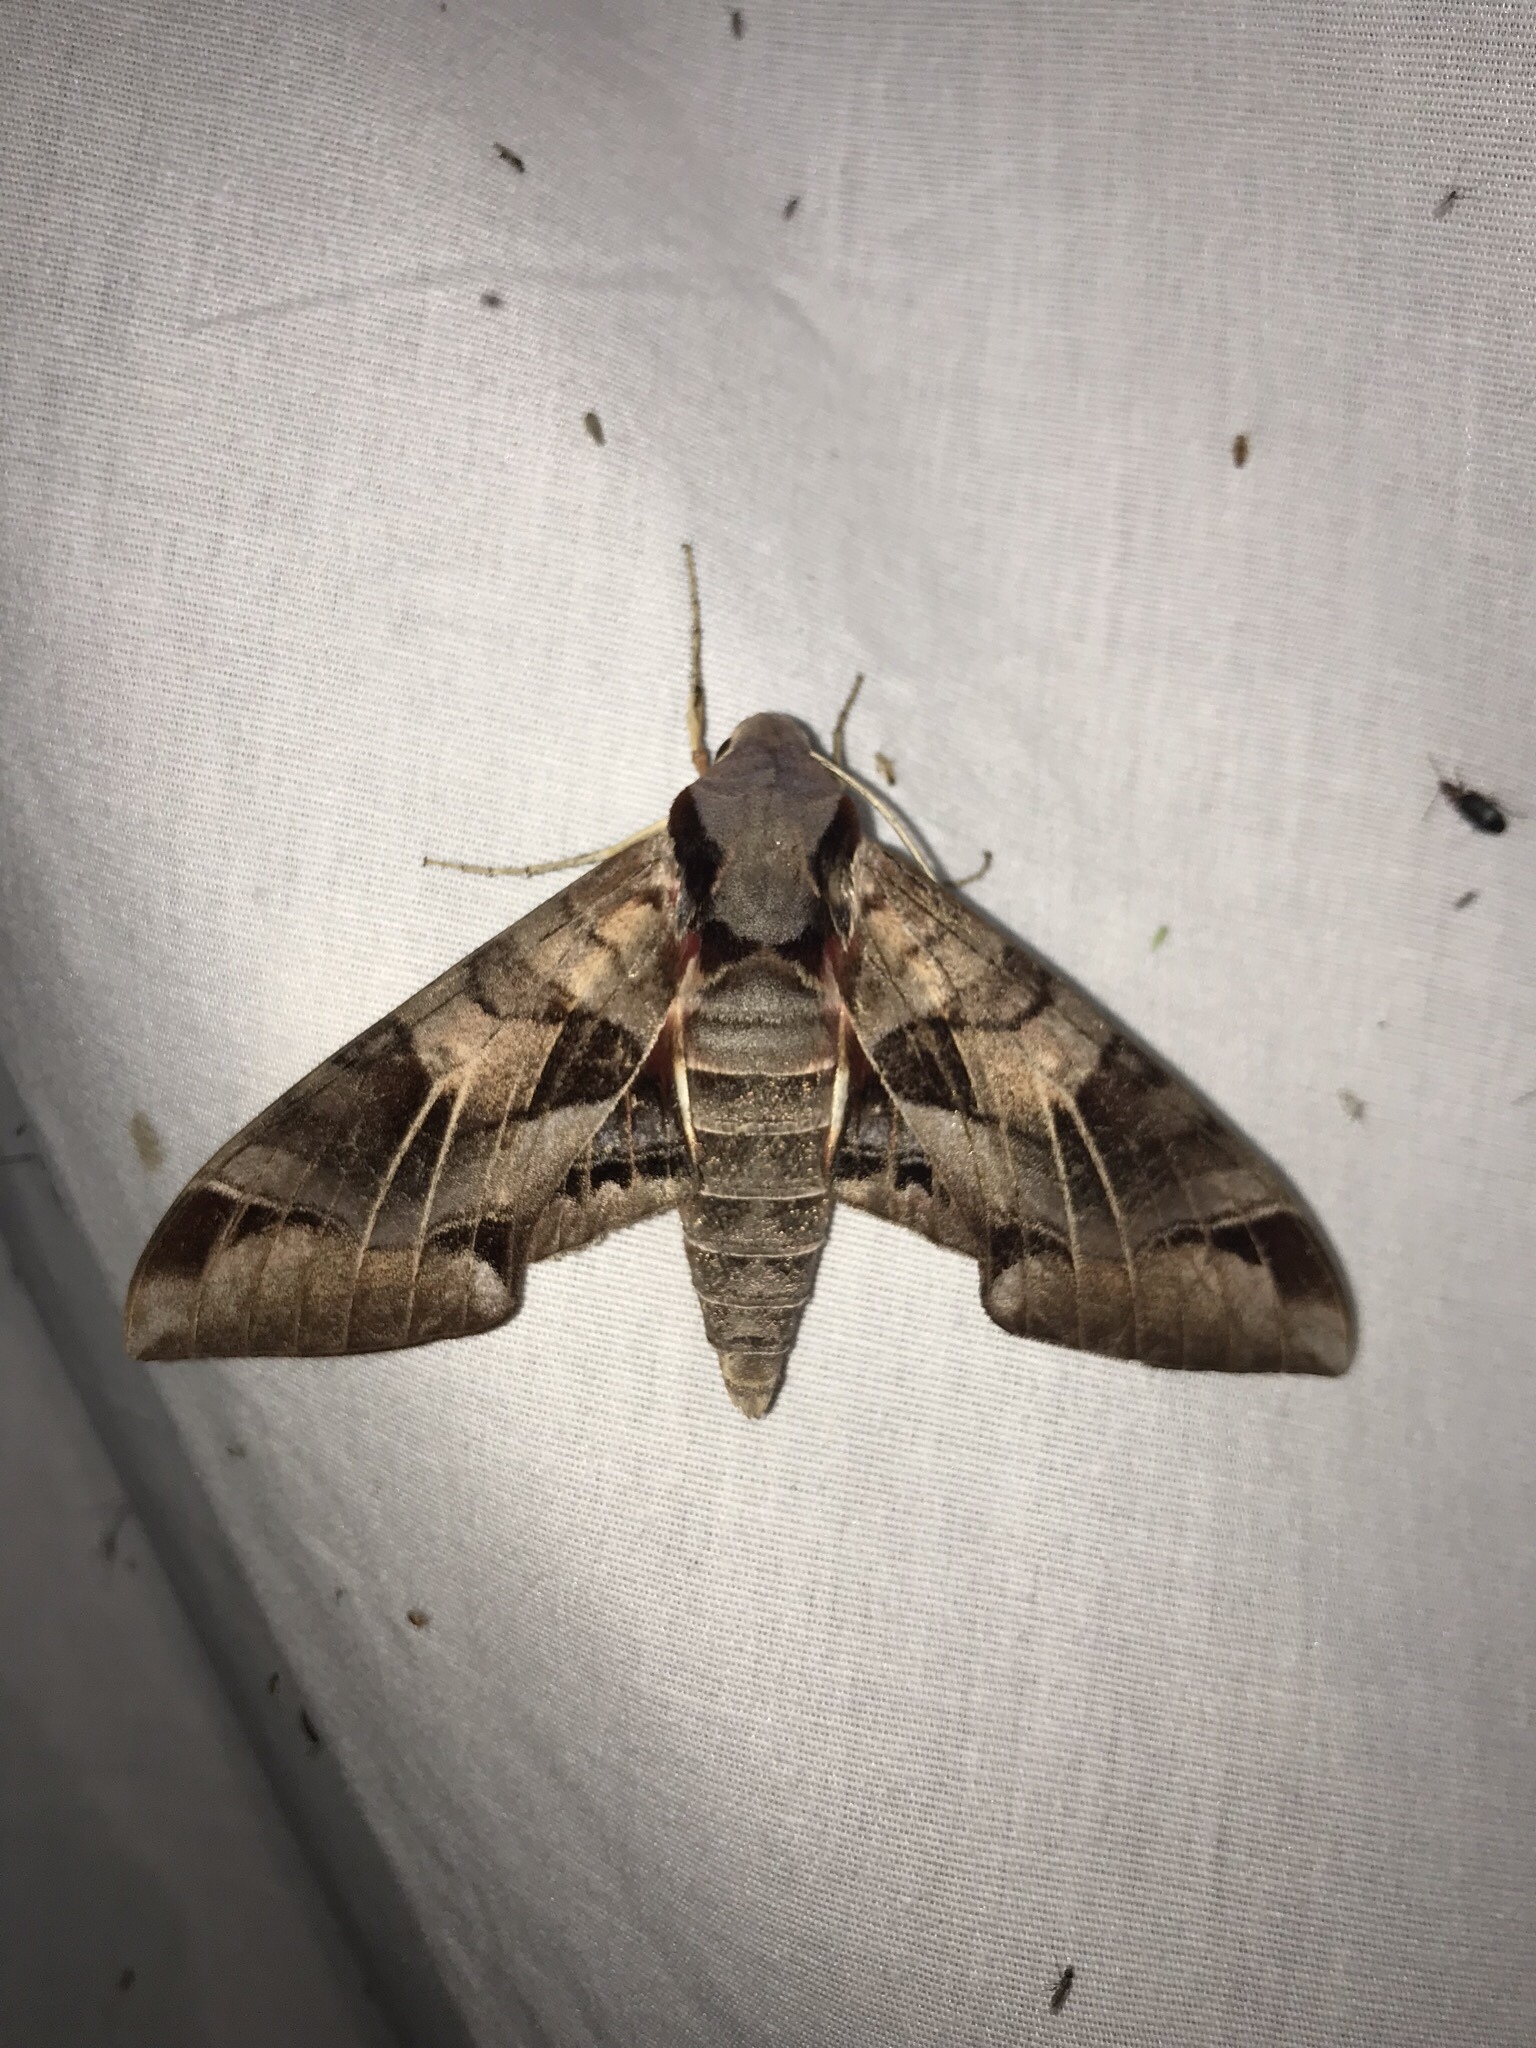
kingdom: Animalia
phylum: Arthropoda
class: Insecta
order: Lepidoptera
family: Sphingidae
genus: Eumorpha
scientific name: Eumorpha typhon
